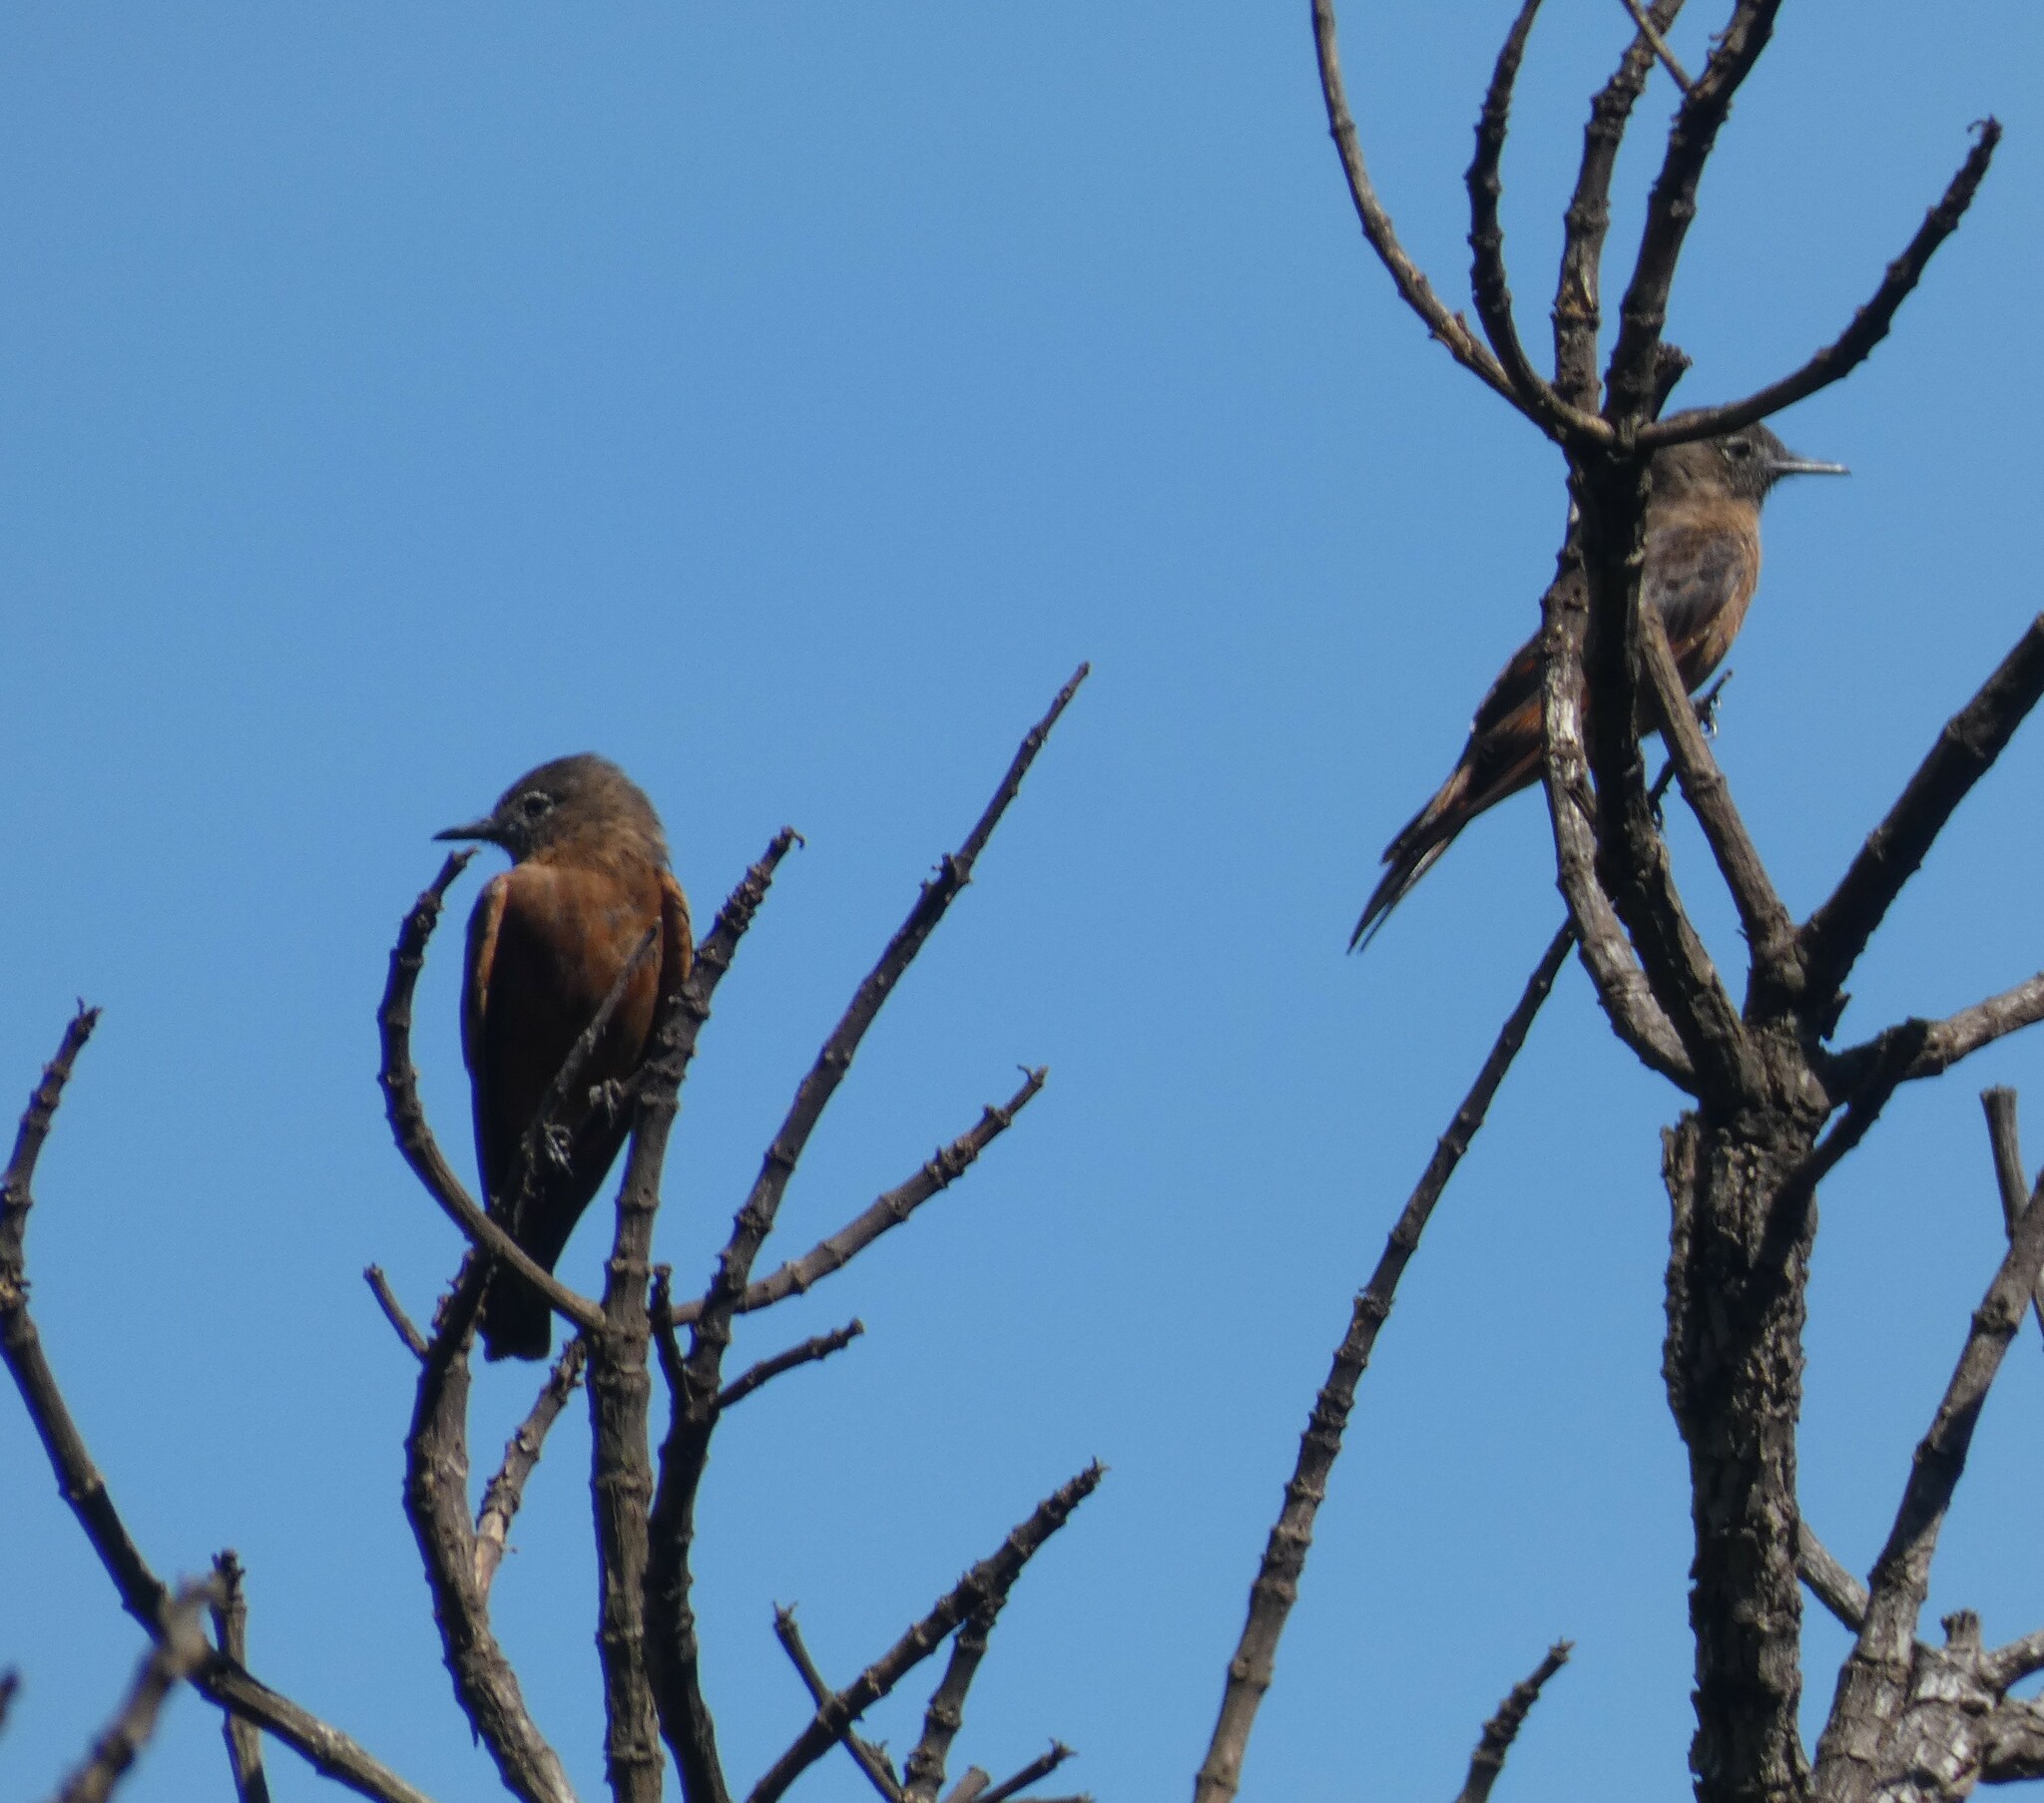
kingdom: Animalia
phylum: Chordata
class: Aves
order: Passeriformes
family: Tyrannidae
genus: Hirundinea
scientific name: Hirundinea ferruginea
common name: Cliff flycatcher
